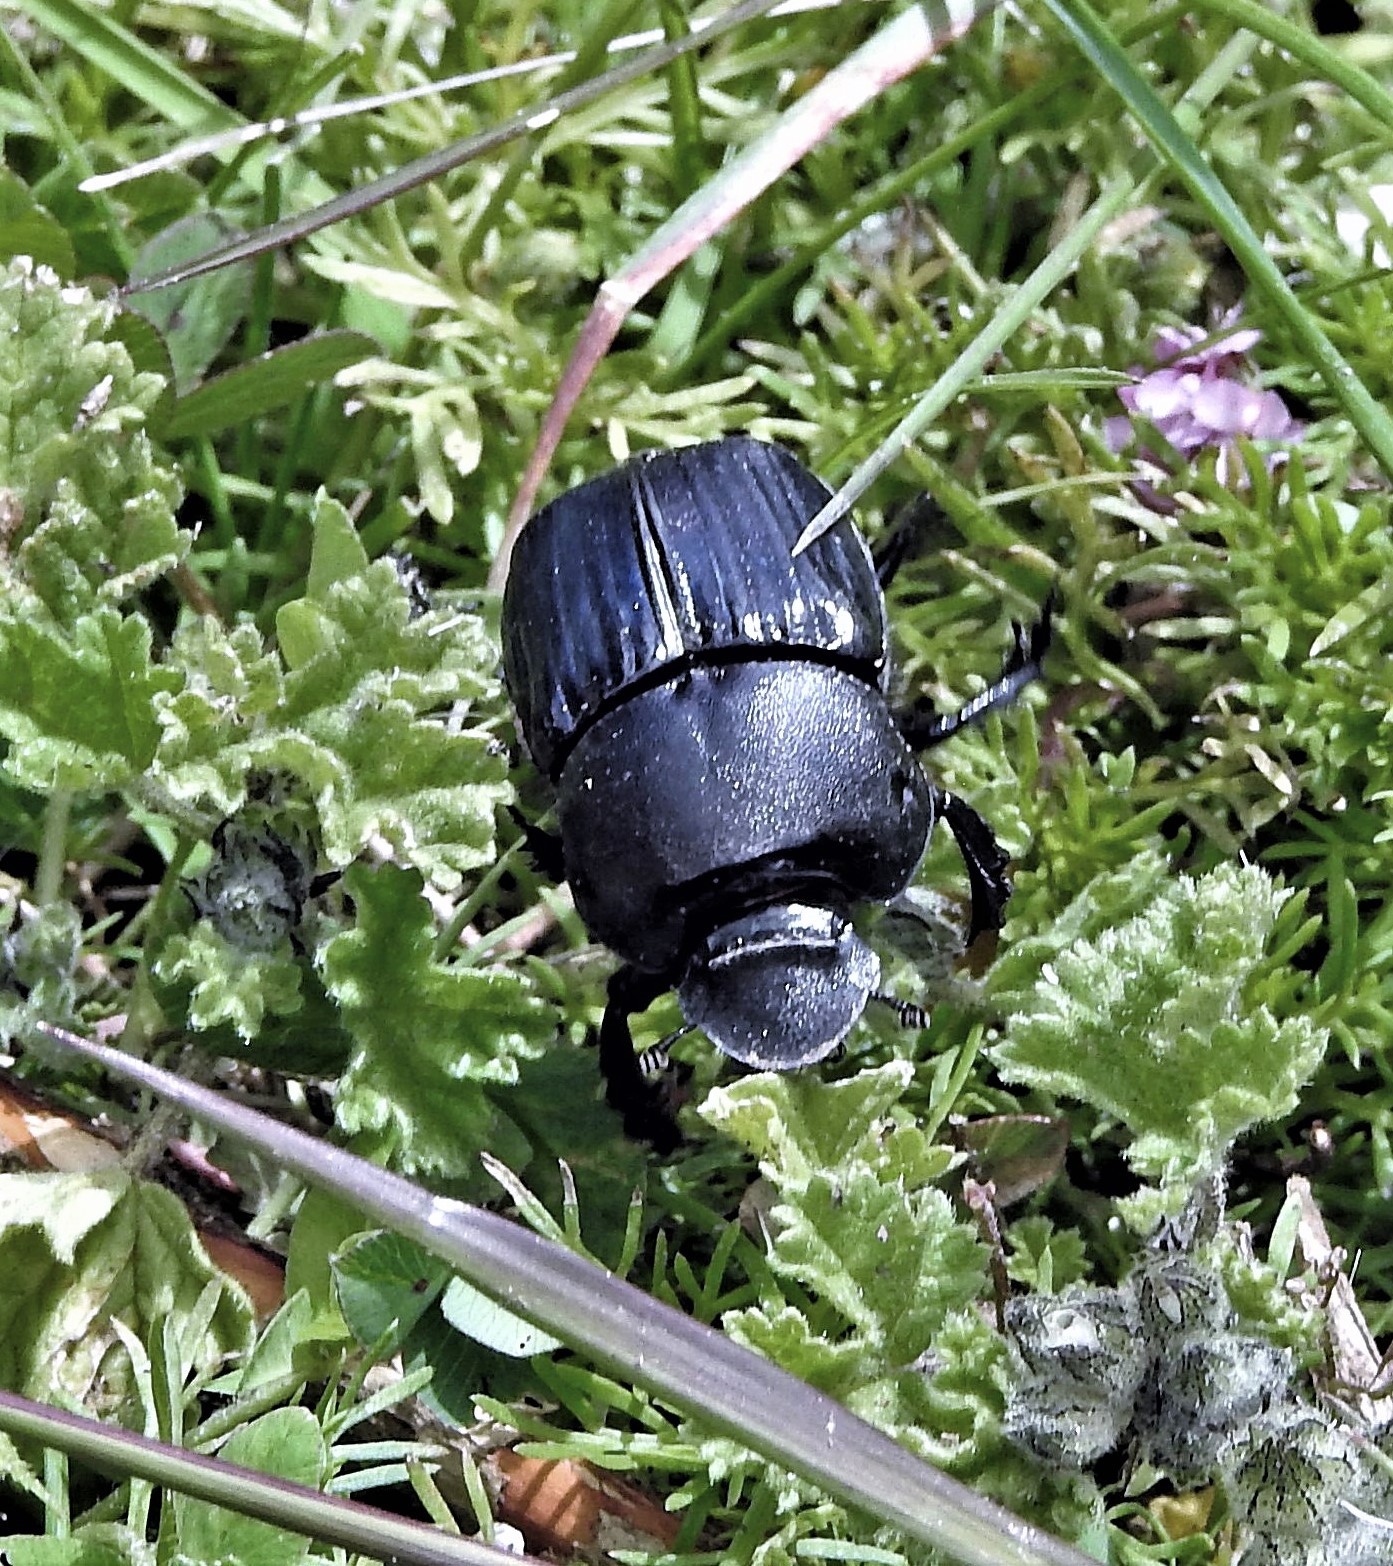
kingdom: Animalia
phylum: Arthropoda
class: Insecta
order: Coleoptera
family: Scarabaeidae
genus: Oruscatus
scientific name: Oruscatus davus
